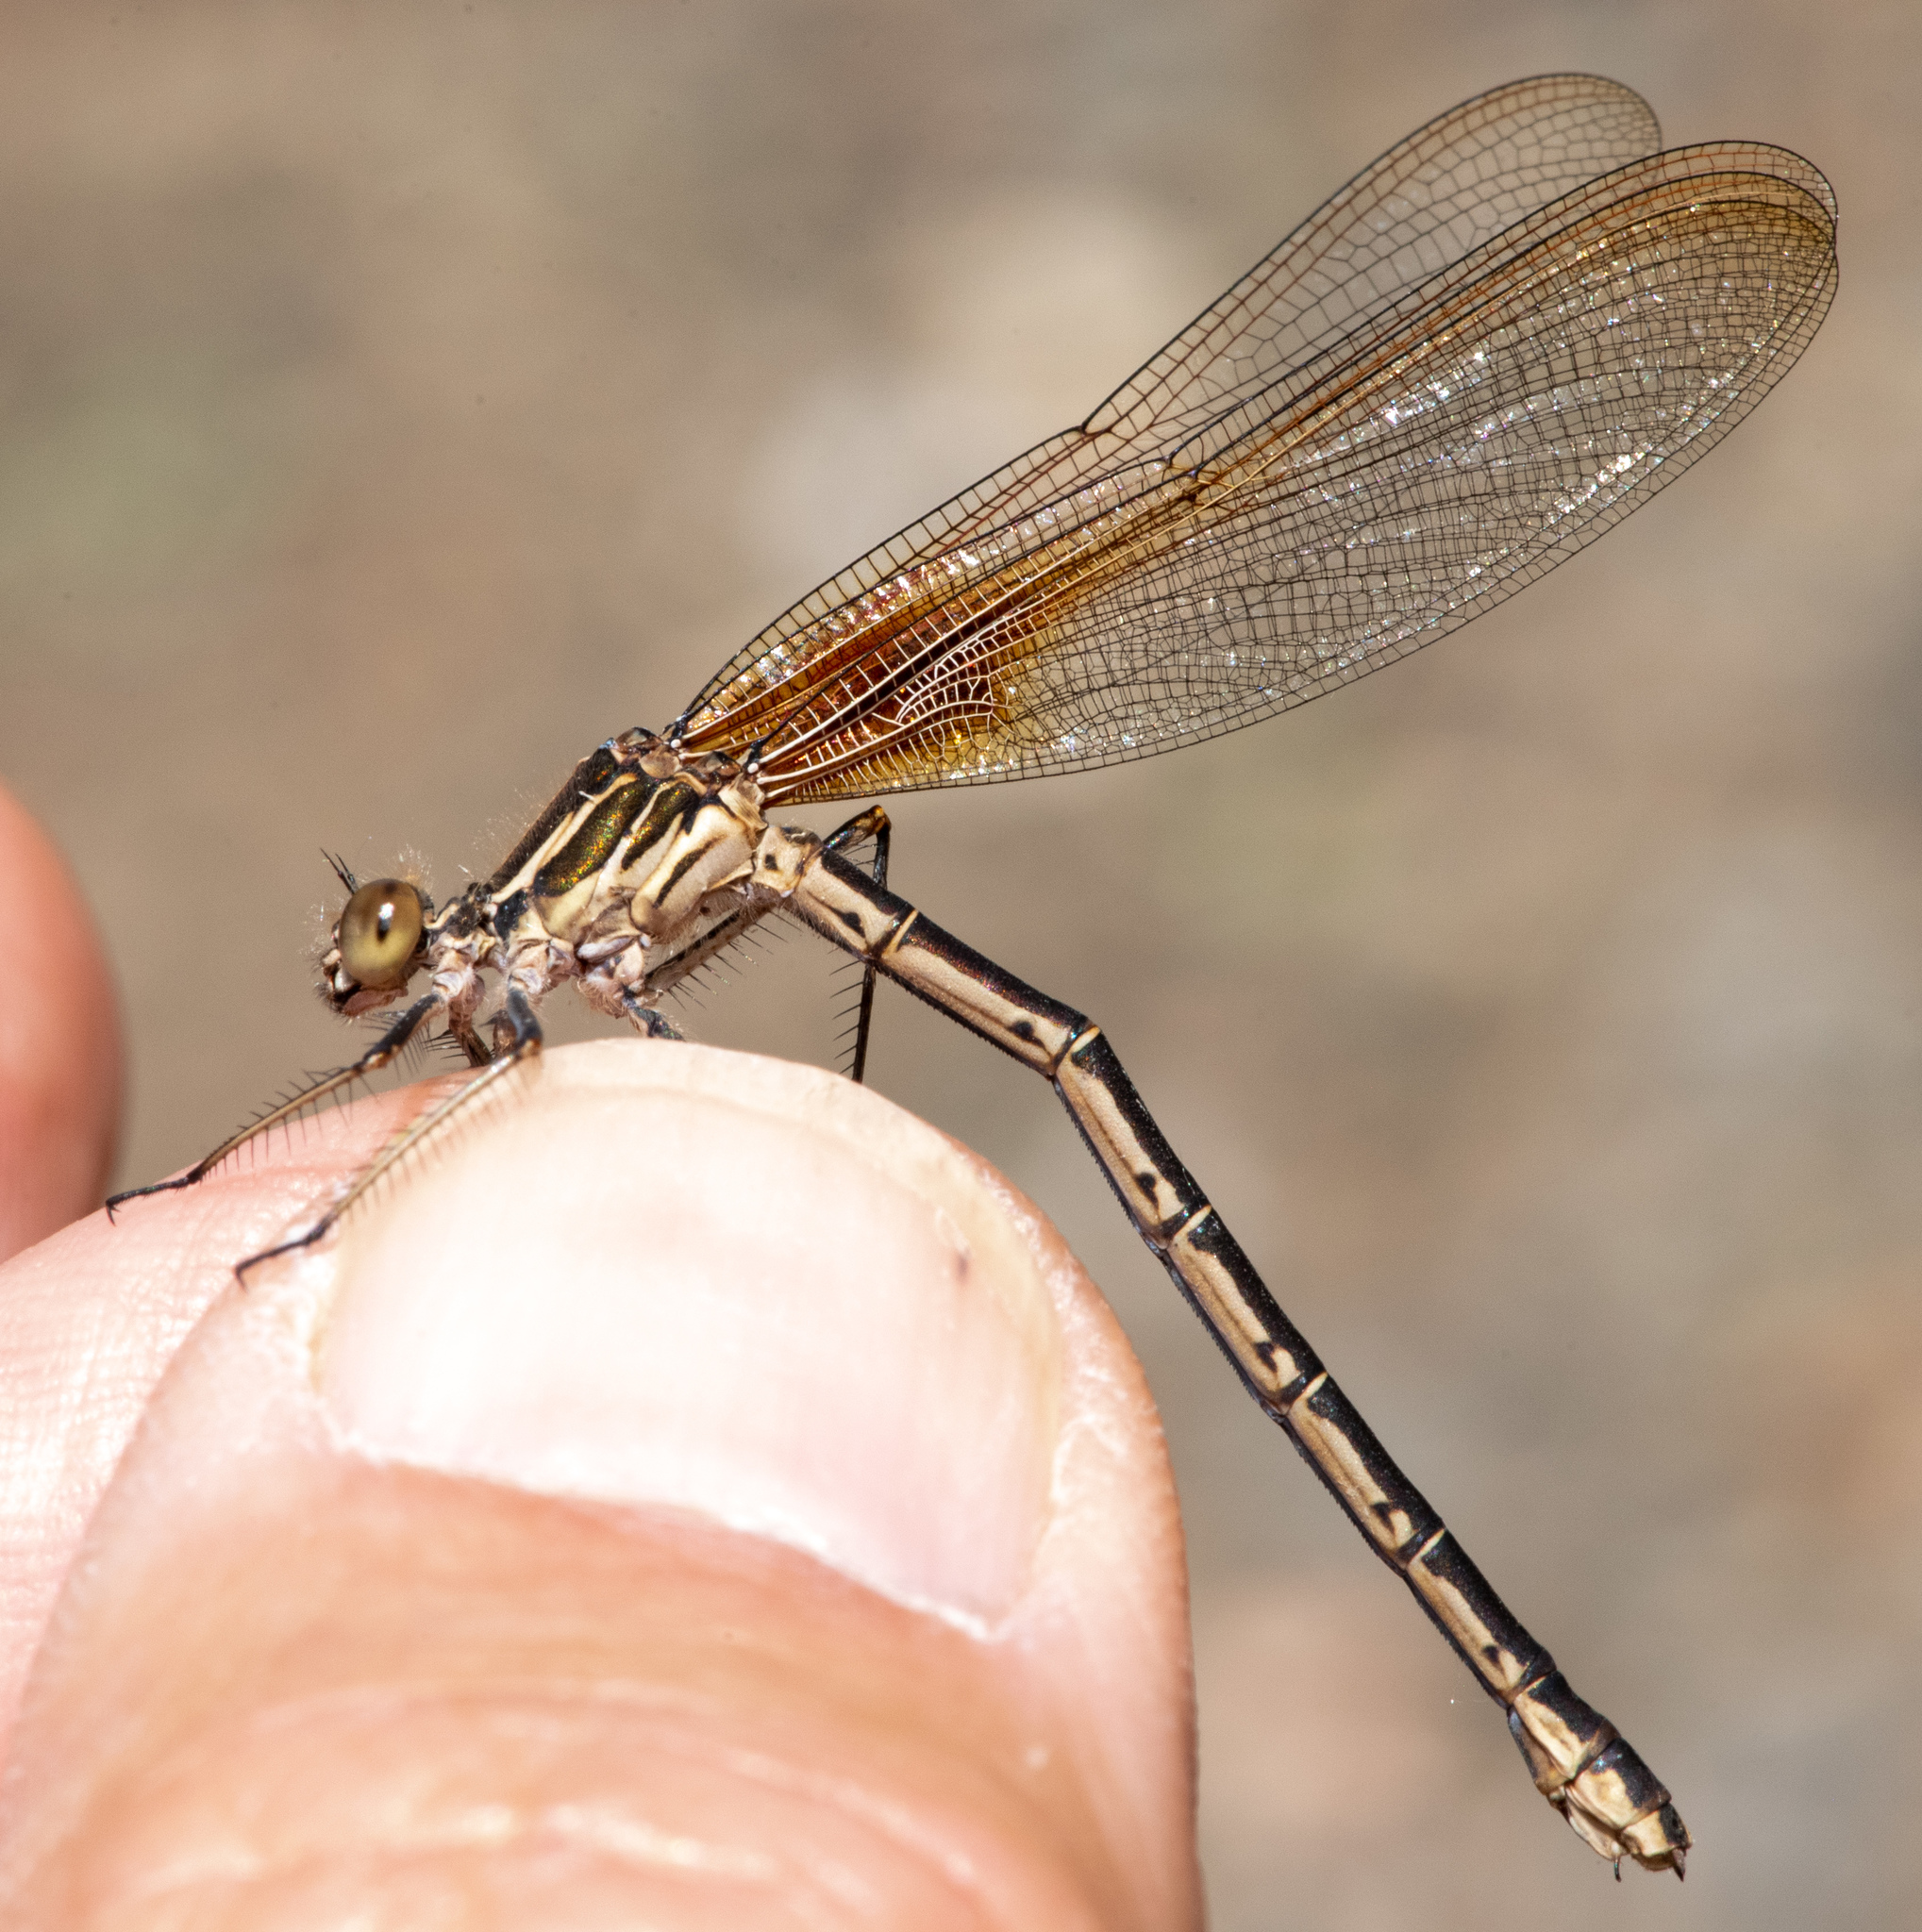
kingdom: Animalia
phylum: Arthropoda
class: Insecta
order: Odonata
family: Calopterygidae
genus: Hetaerina
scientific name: Hetaerina americana
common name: American rubyspot
